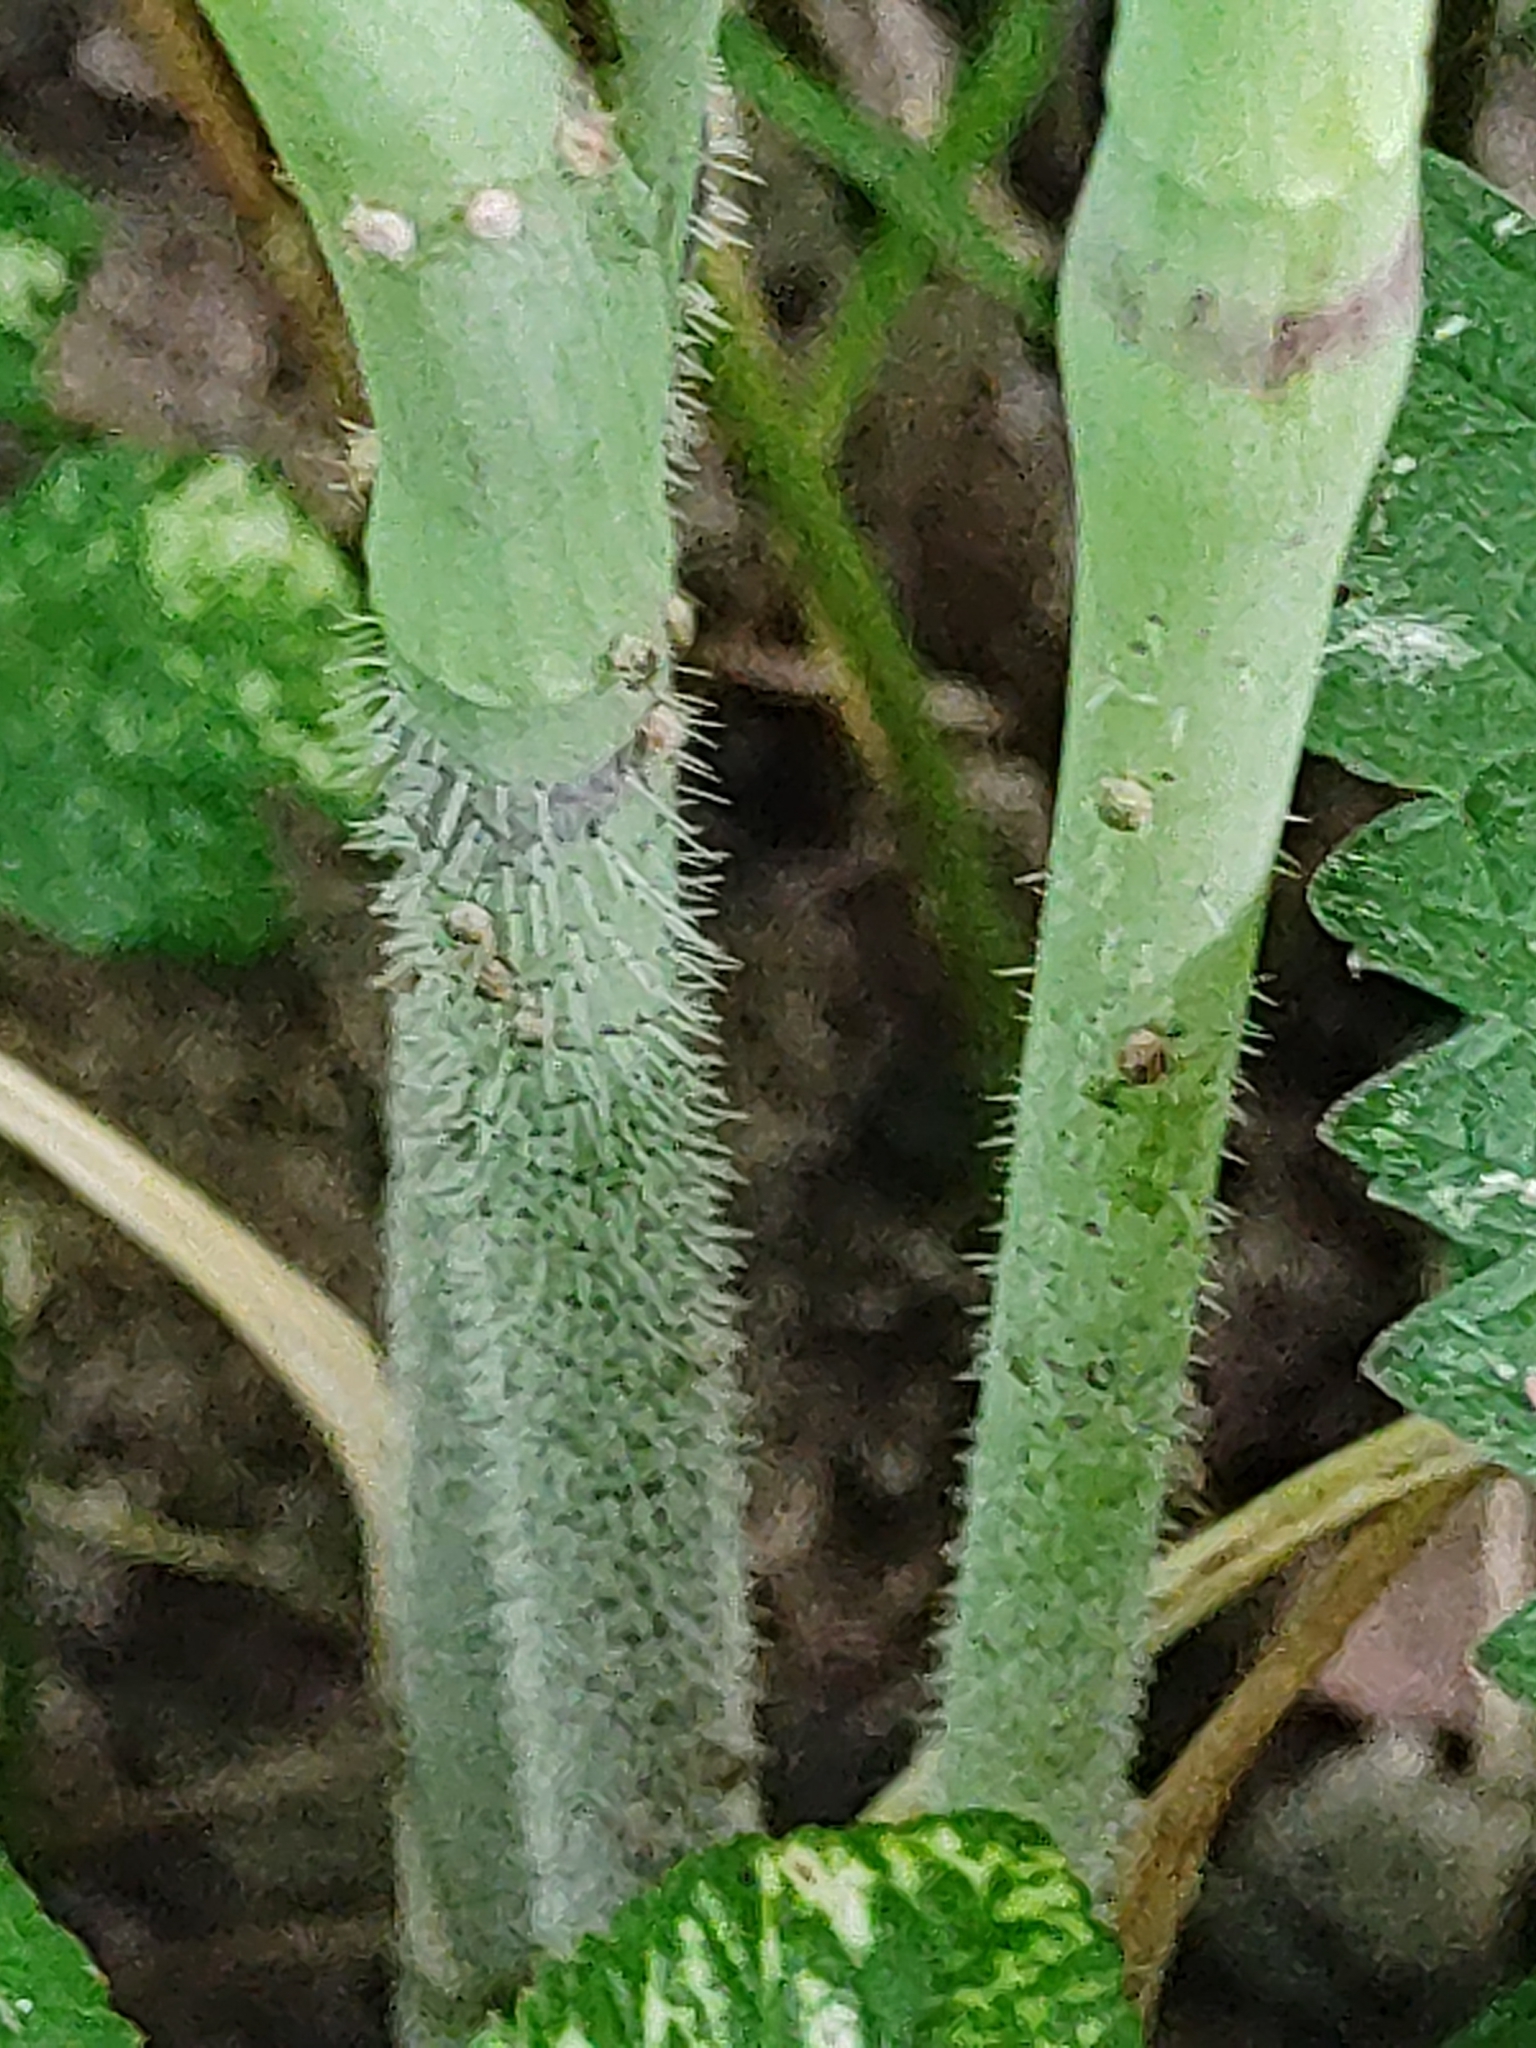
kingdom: Plantae
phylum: Tracheophyta
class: Magnoliopsida
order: Apiales
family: Apiaceae
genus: Chaerophyllum
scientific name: Chaerophyllum bulbosum
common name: Bulbous chervil
